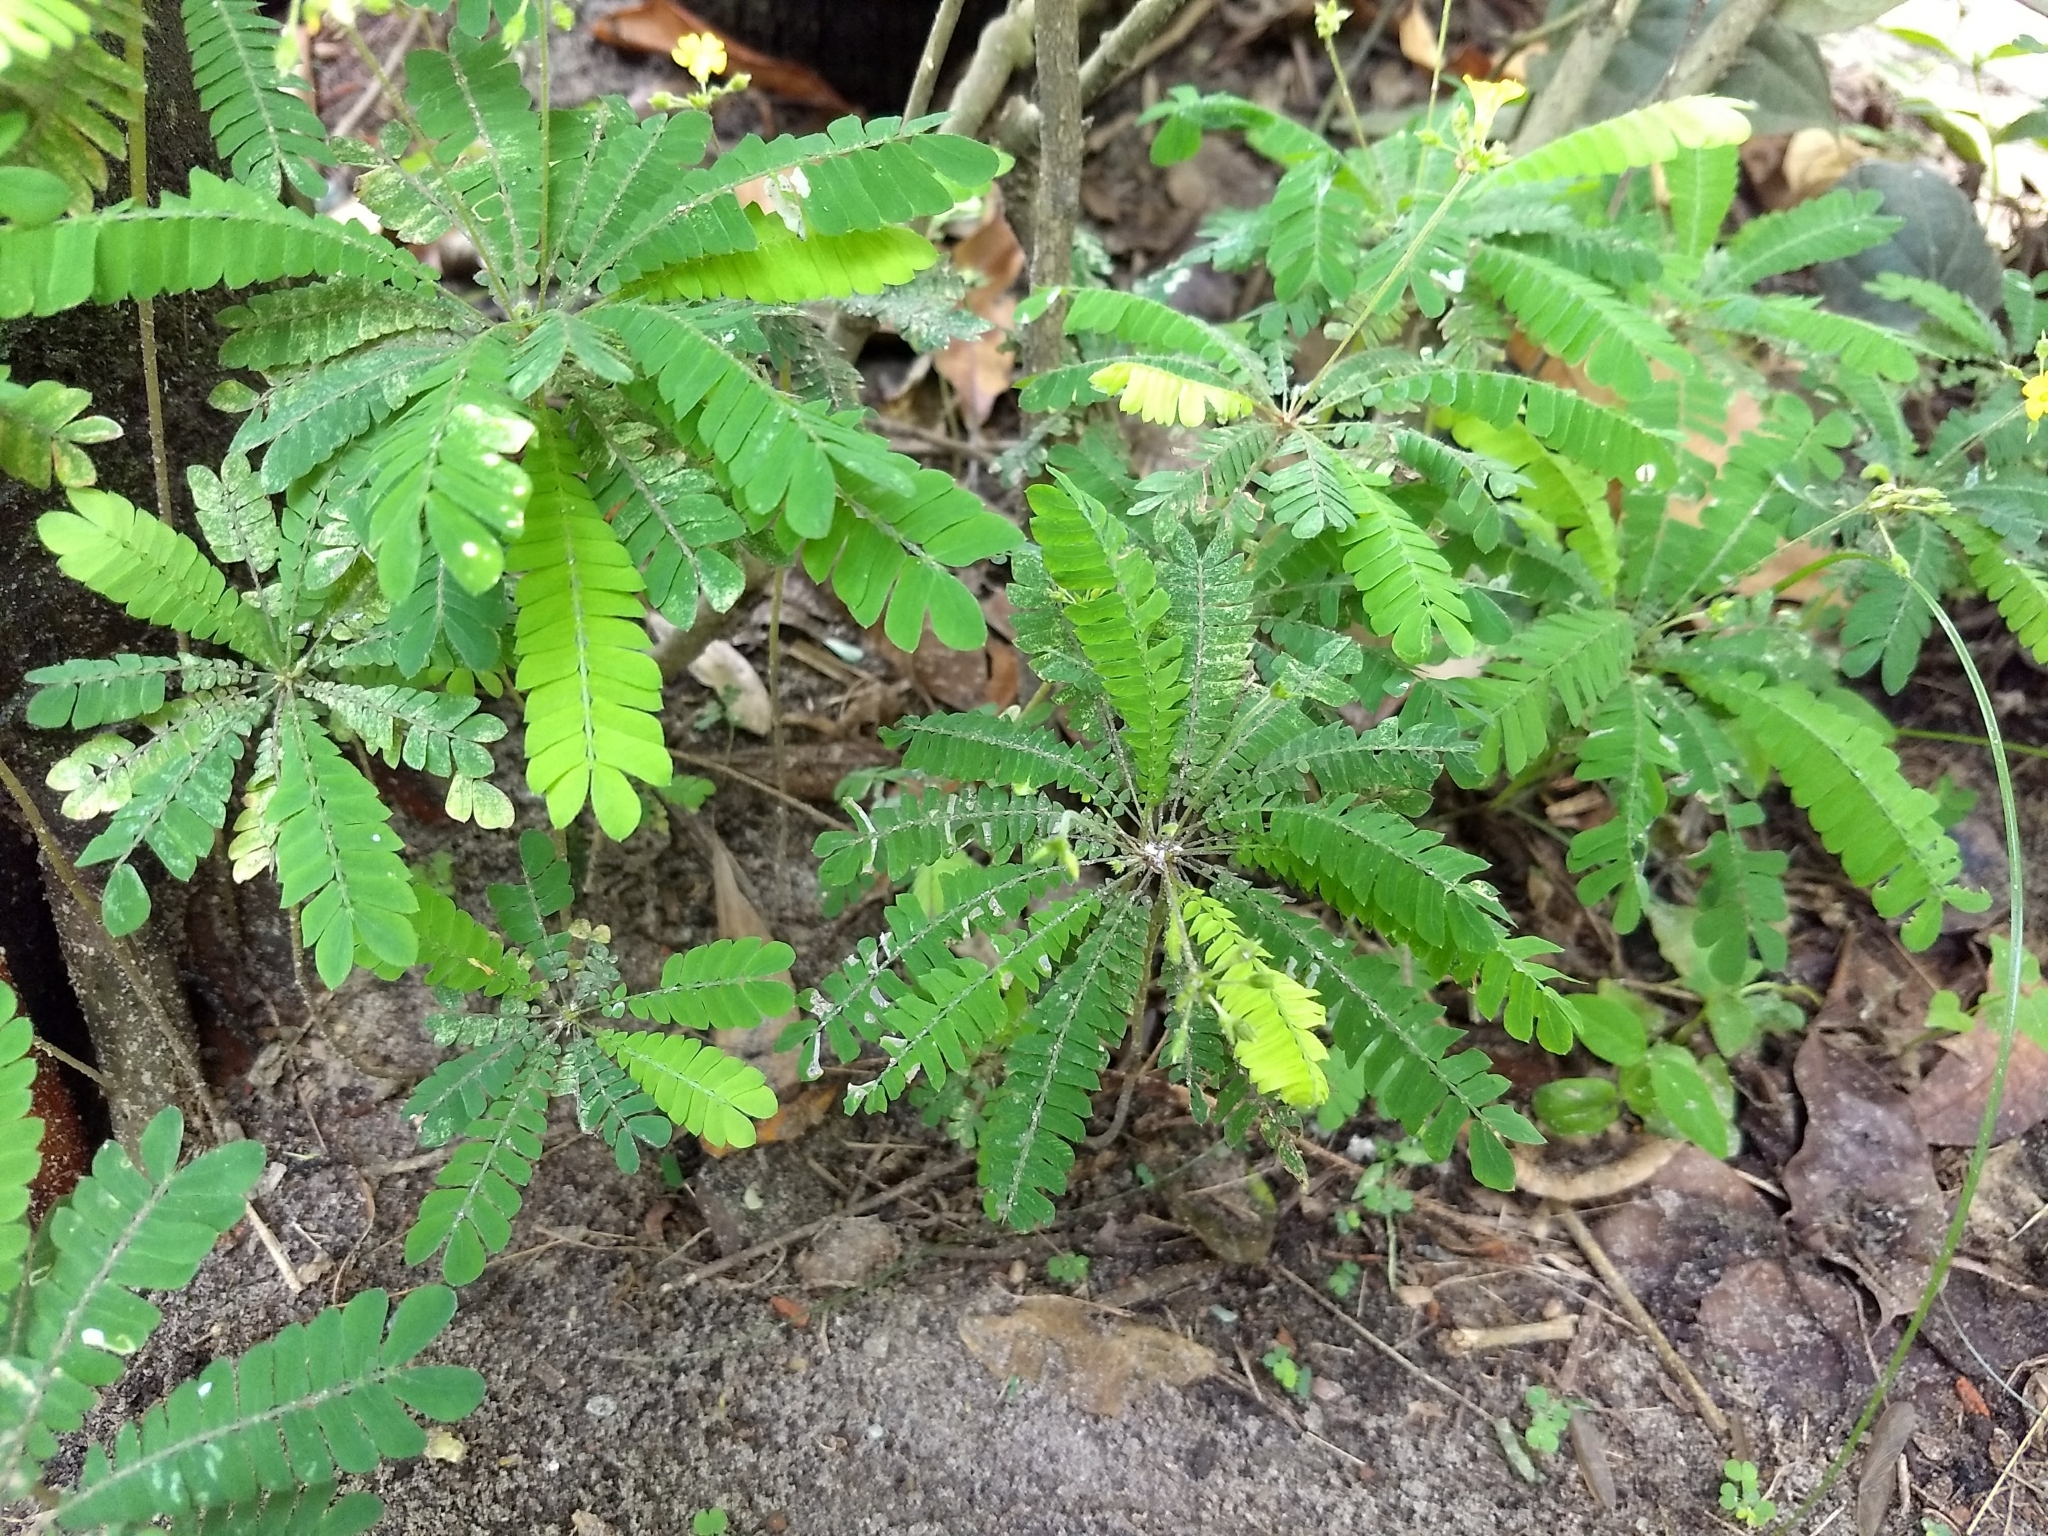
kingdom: Plantae
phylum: Tracheophyta
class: Magnoliopsida
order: Oxalidales
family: Oxalidaceae
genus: Biophytum
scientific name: Biophytum sensitivum
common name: Lifeplant
